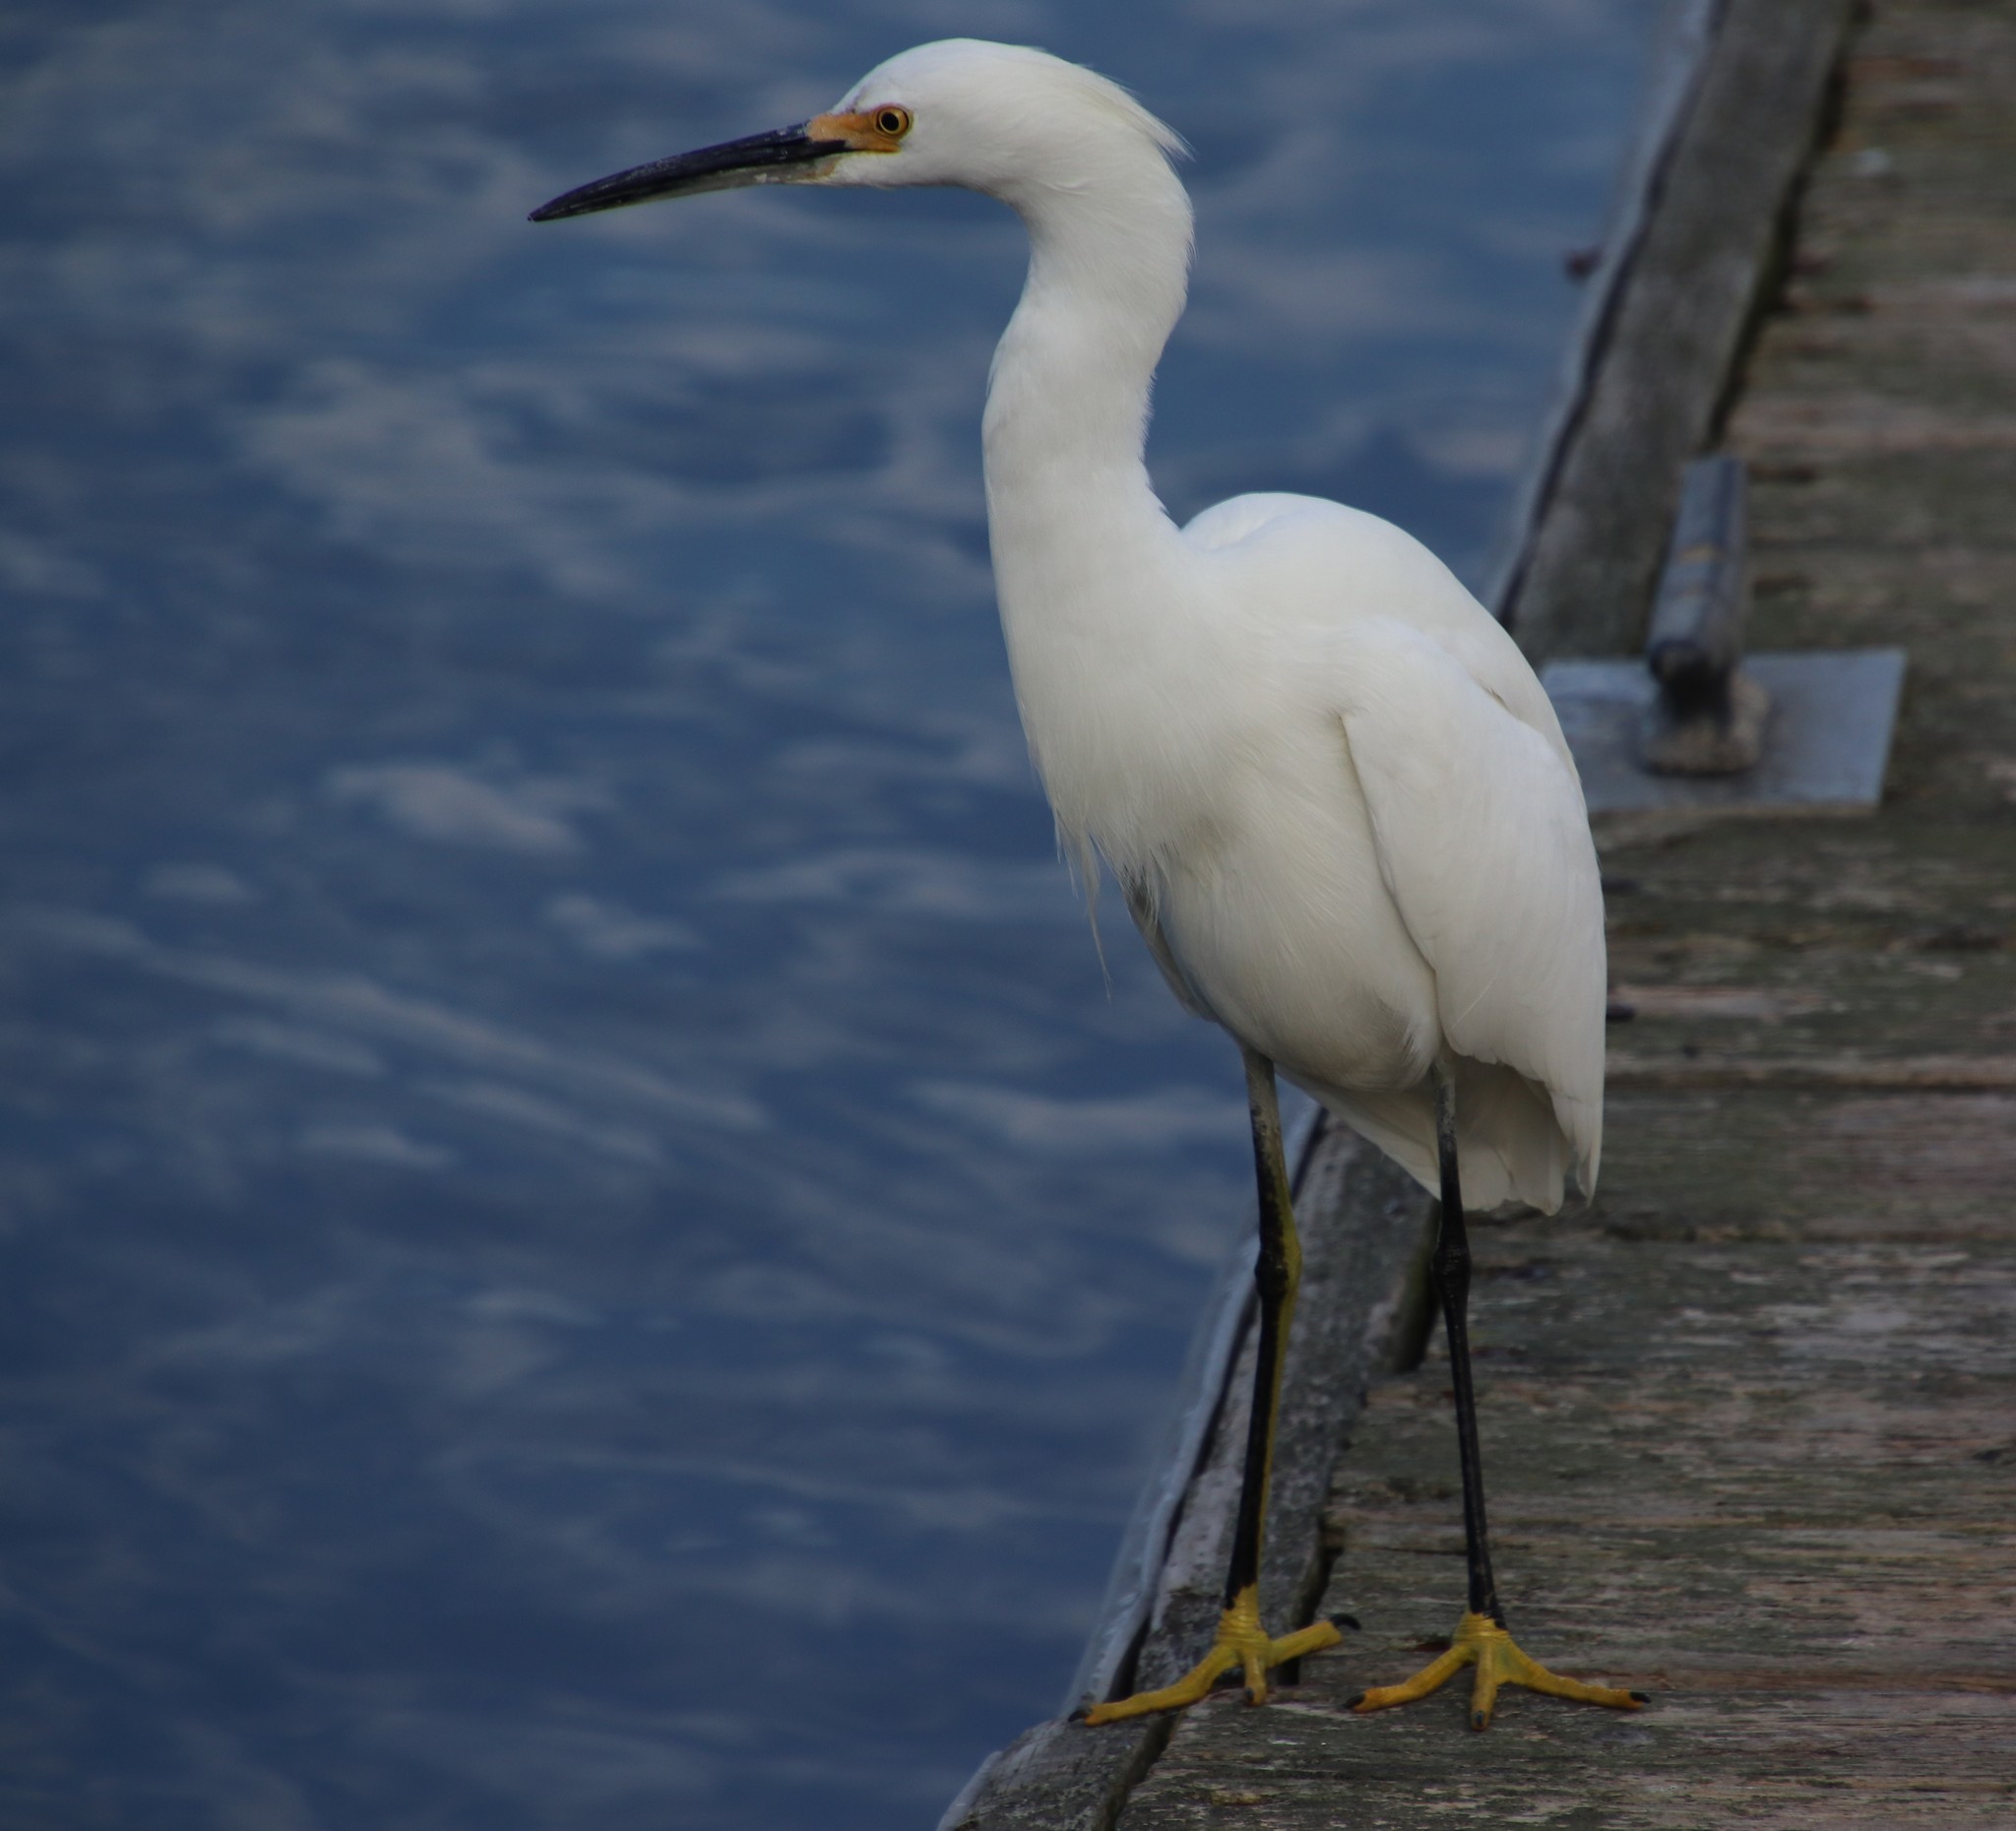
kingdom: Animalia
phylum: Chordata
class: Aves
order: Pelecaniformes
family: Ardeidae
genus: Egretta
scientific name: Egretta thula
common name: Snowy egret
